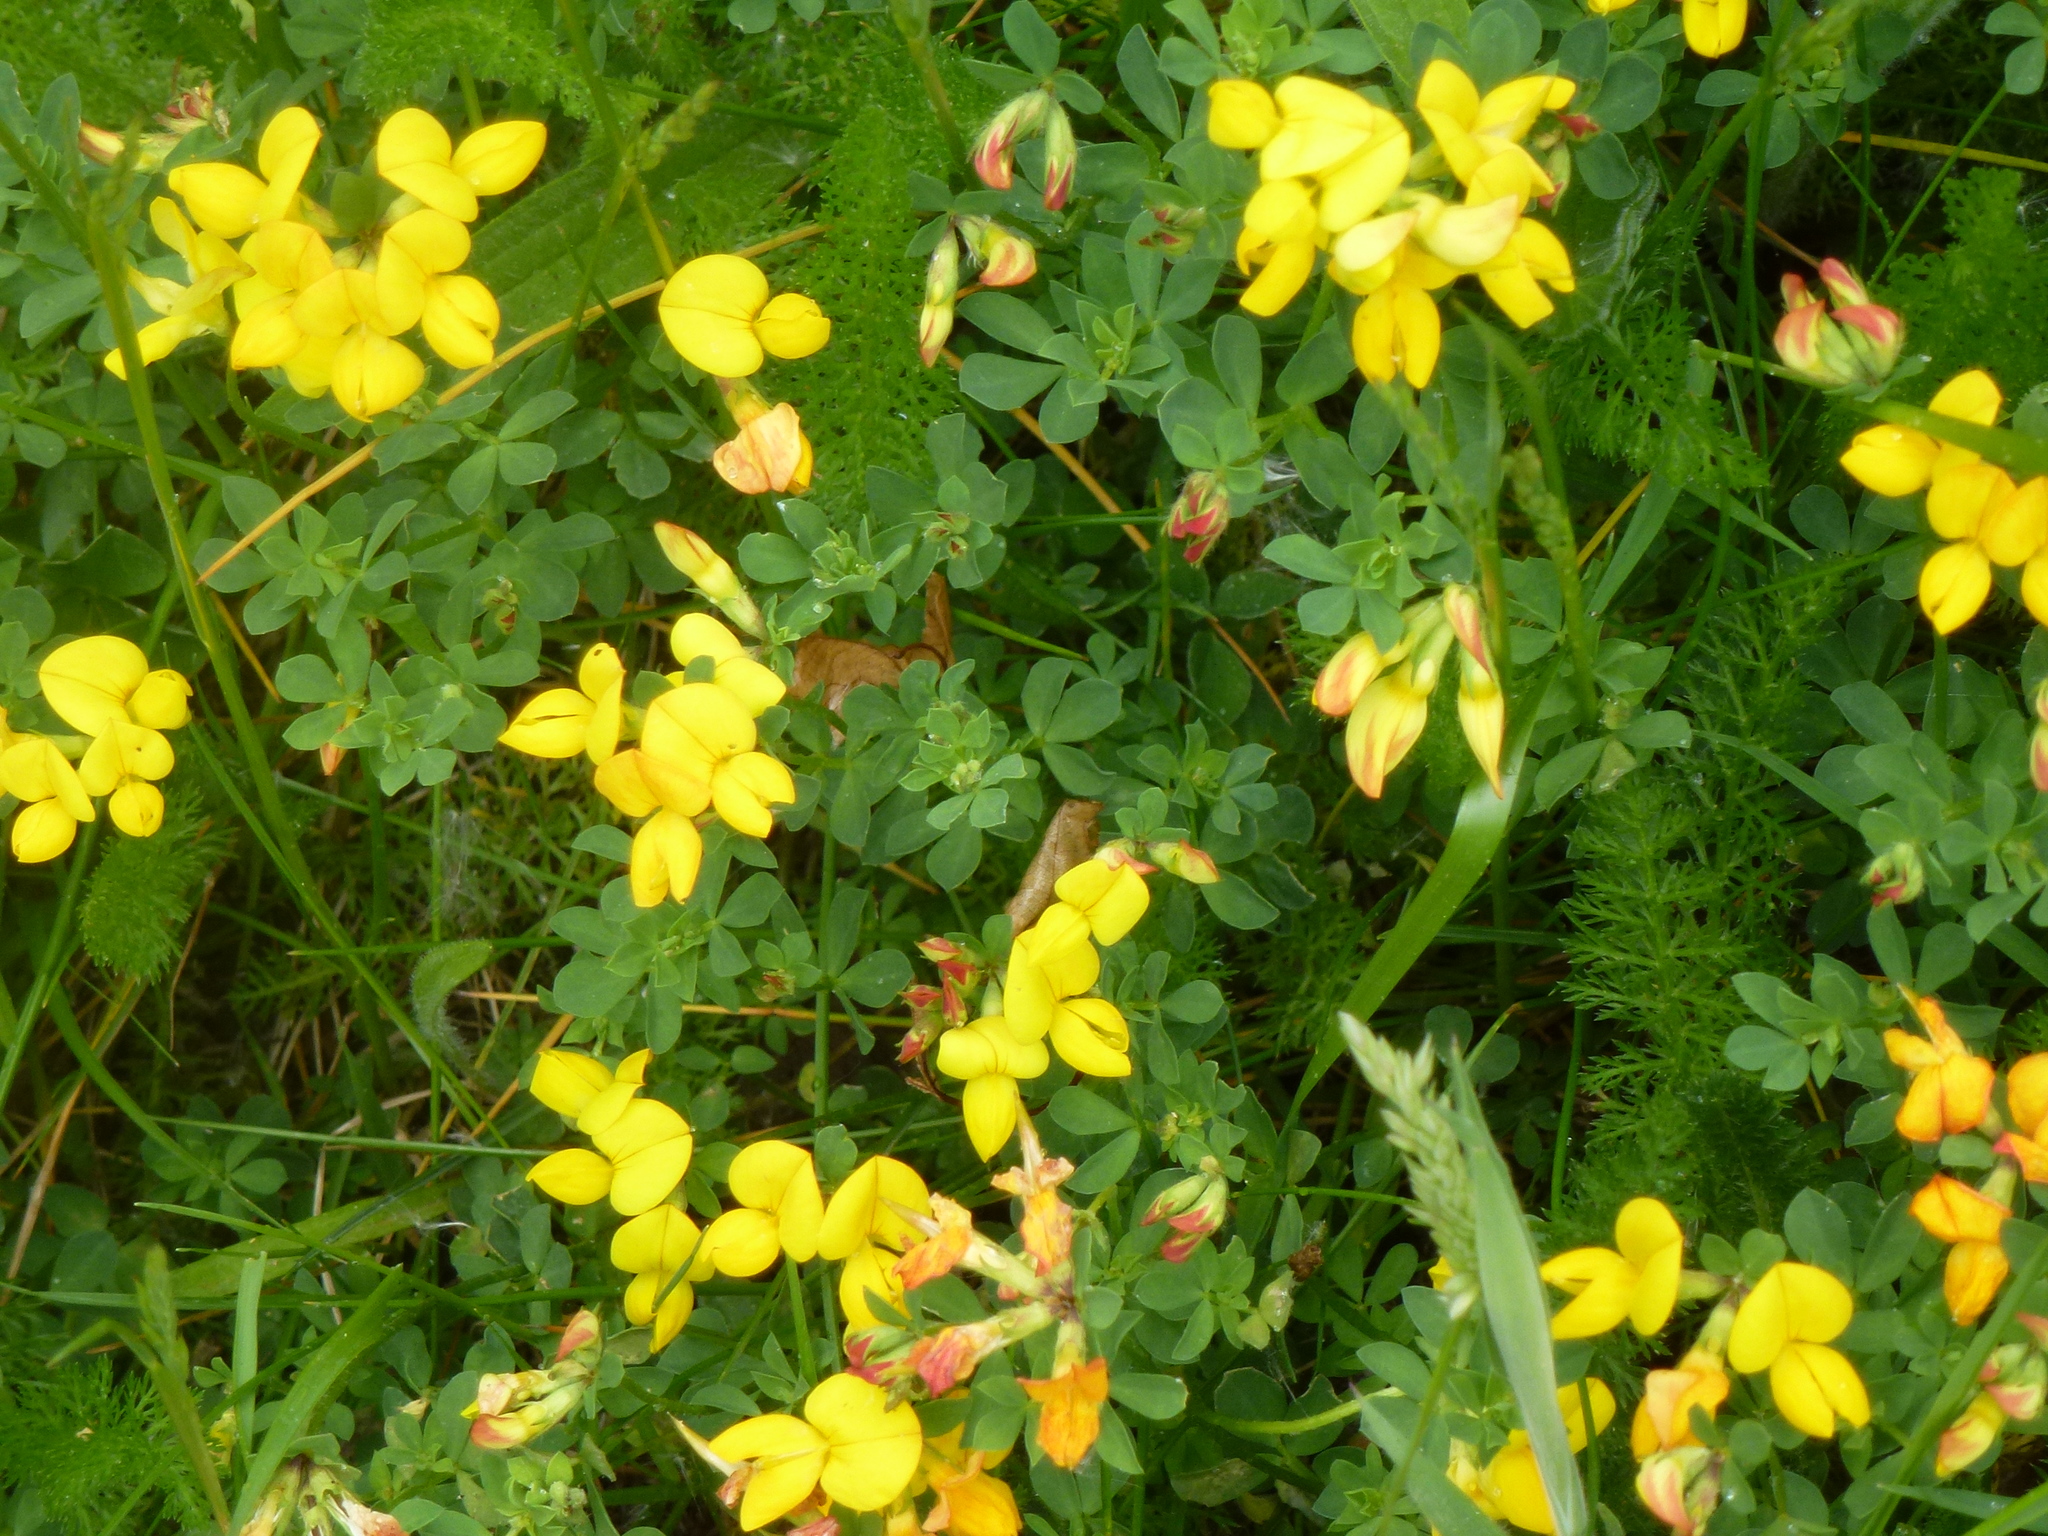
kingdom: Plantae
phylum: Tracheophyta
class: Magnoliopsida
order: Fabales
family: Fabaceae
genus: Lotus
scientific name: Lotus corniculatus
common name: Common bird's-foot-trefoil
